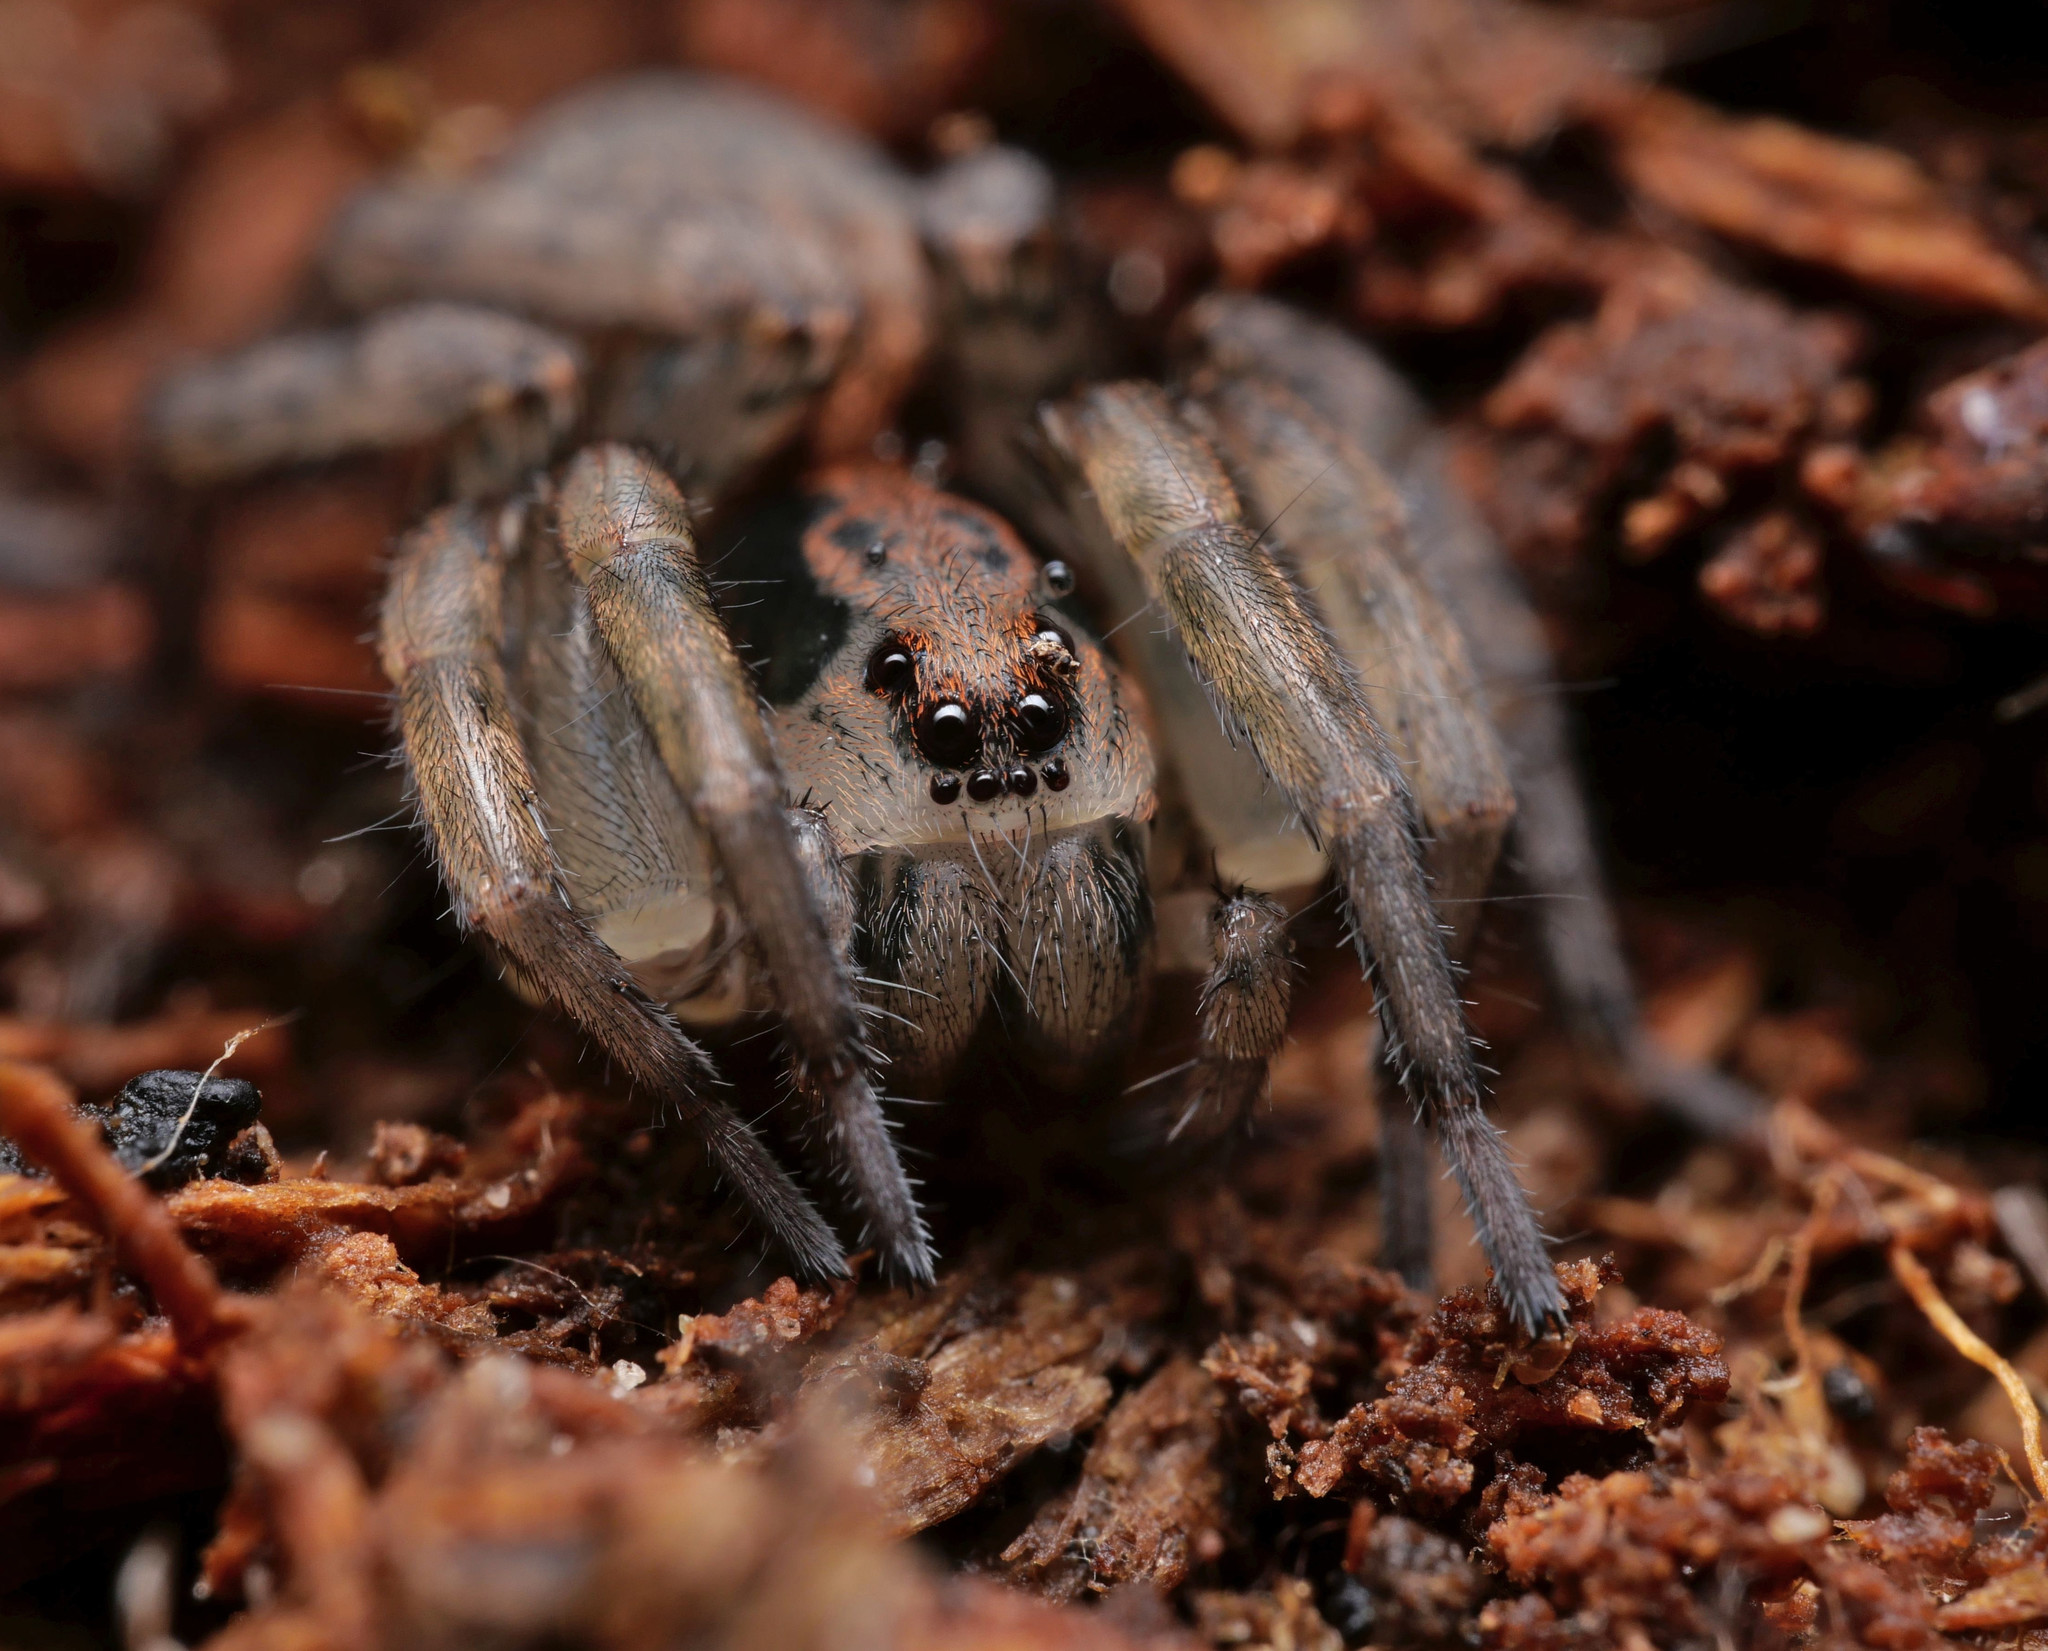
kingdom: Animalia
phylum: Arthropoda
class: Arachnida
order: Araneae
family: Lycosidae
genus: Trochosa
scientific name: Trochosa
